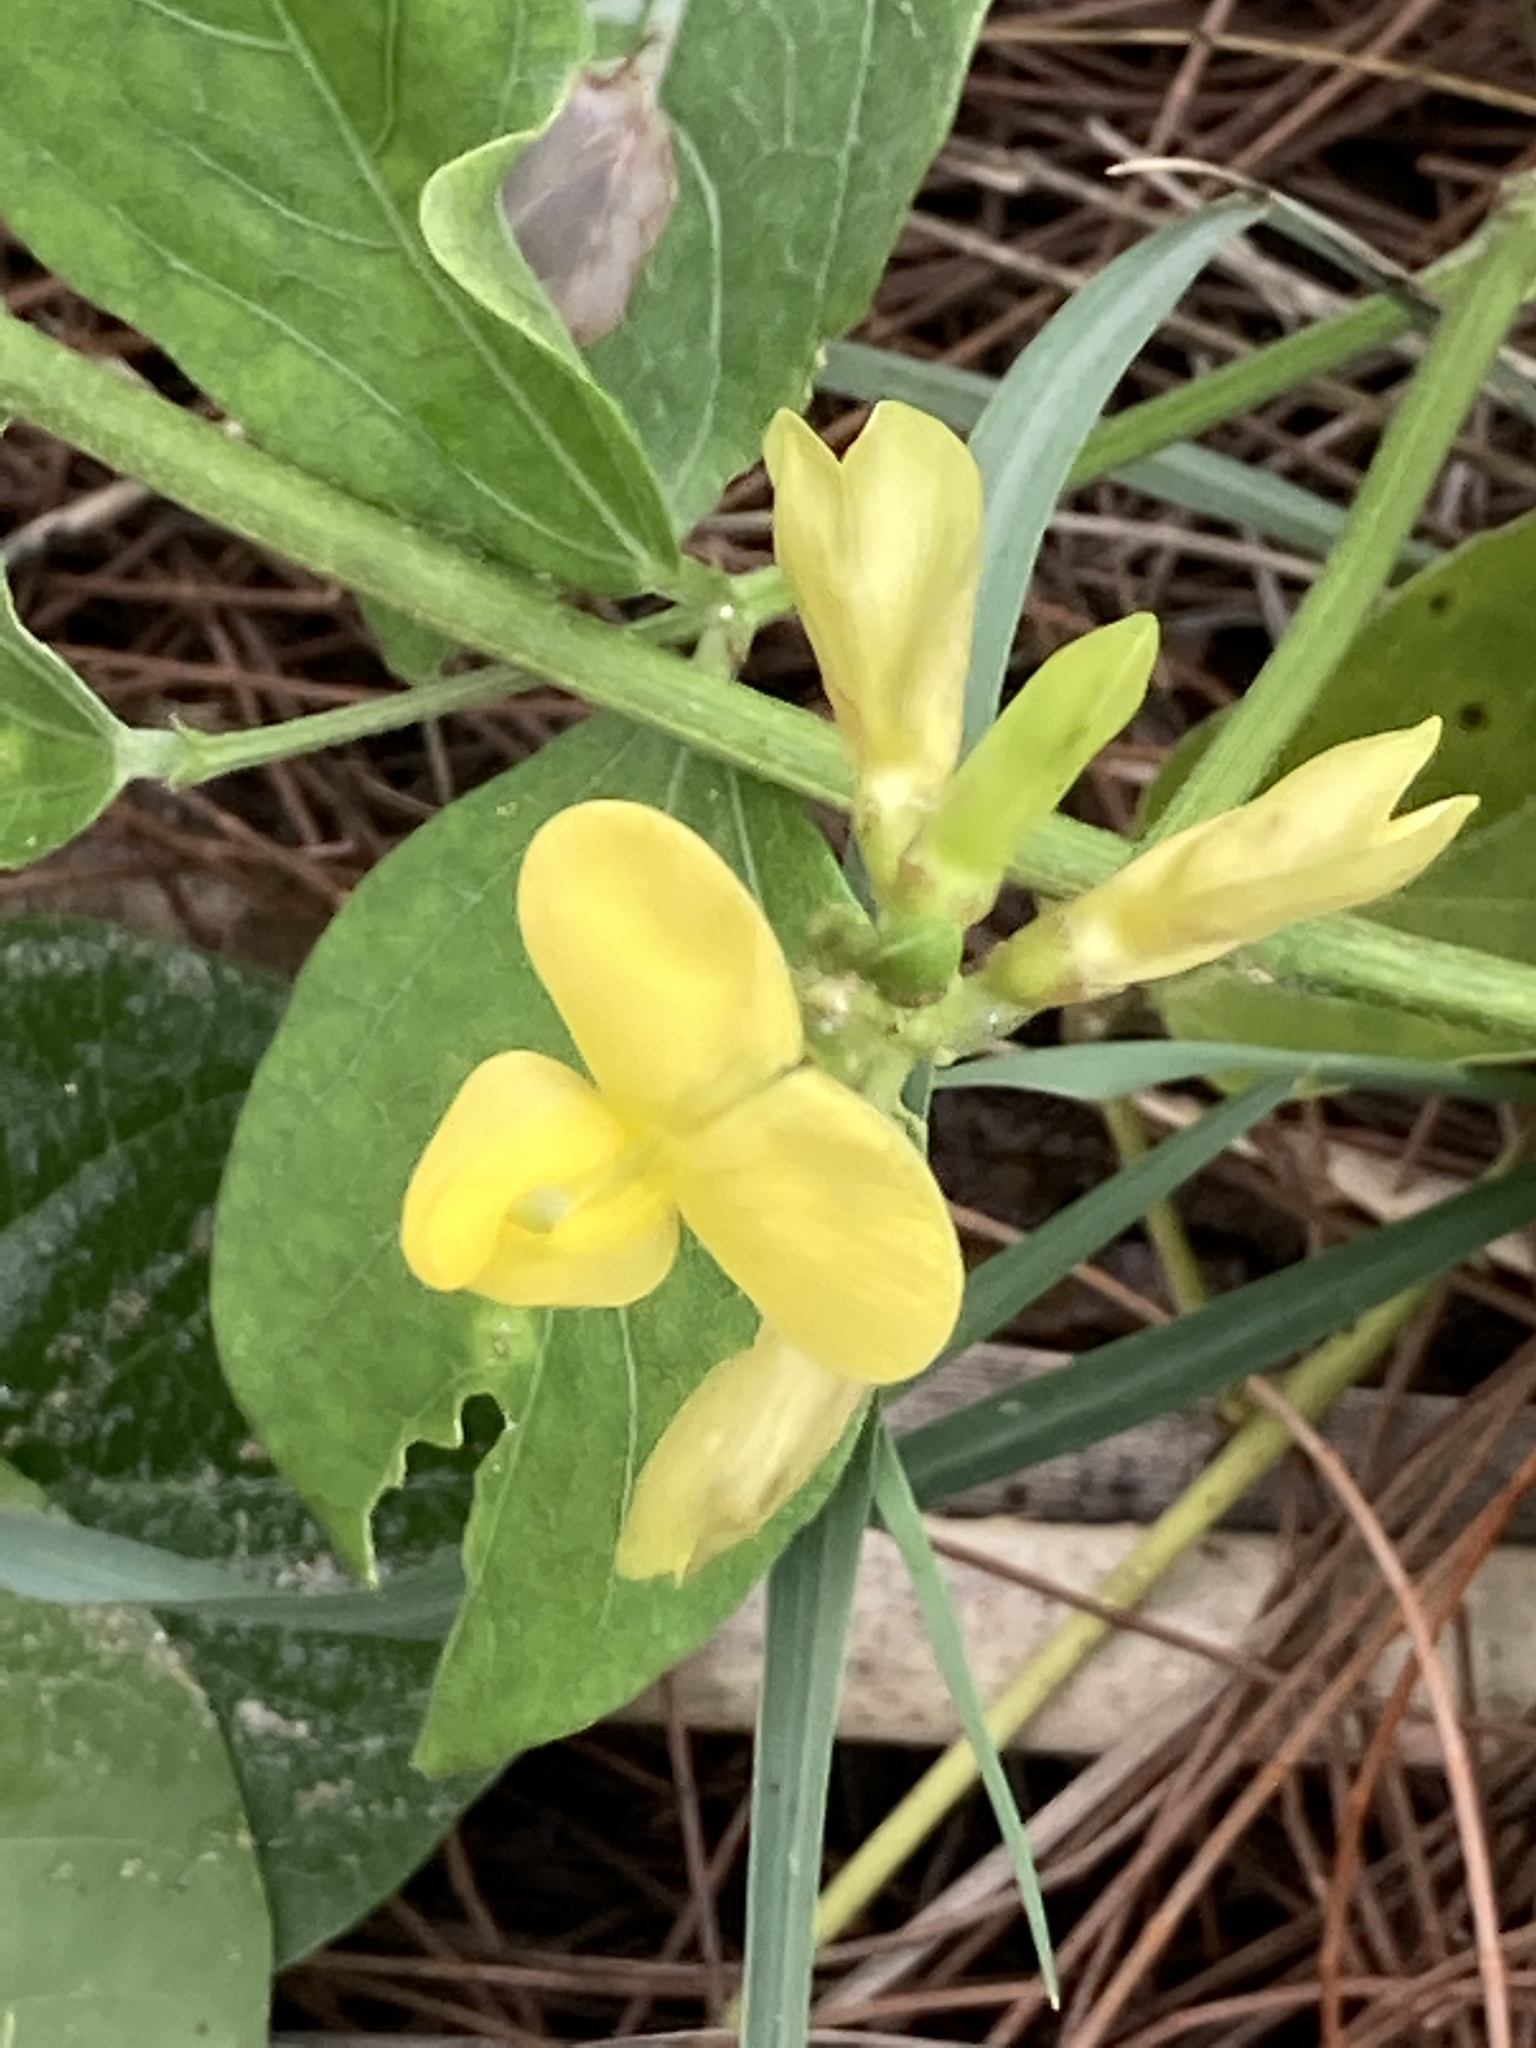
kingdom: Plantae
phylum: Tracheophyta
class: Magnoliopsida
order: Fabales
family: Fabaceae
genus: Vigna
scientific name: Vigna marina
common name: Dune-bean
